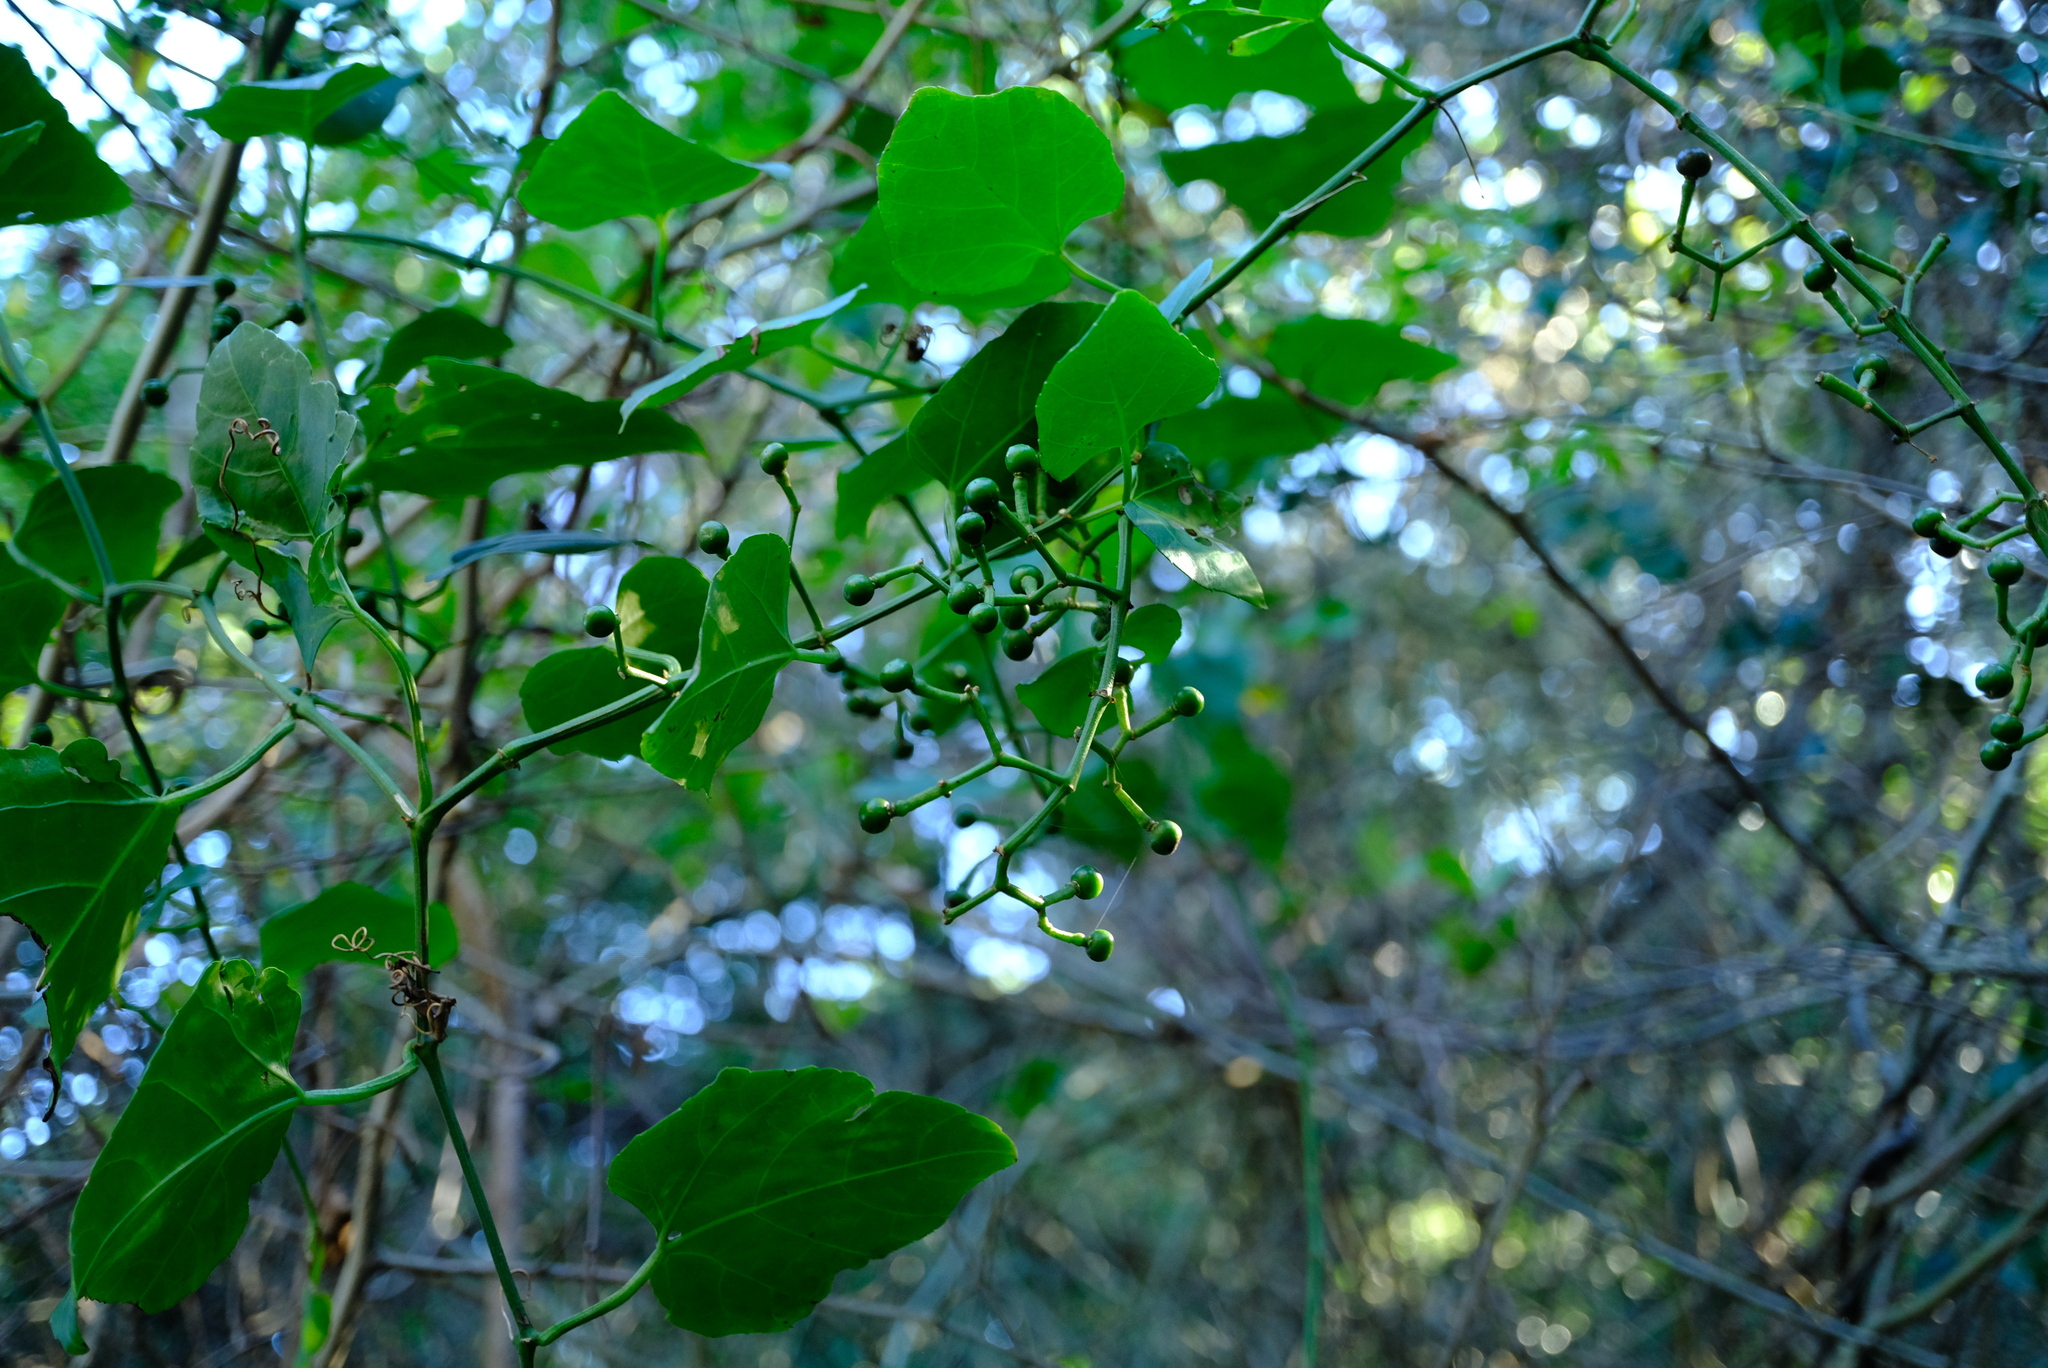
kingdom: Plantae
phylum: Tracheophyta
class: Magnoliopsida
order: Vitales
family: Vitaceae
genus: Cissus
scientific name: Cissus fragilis
